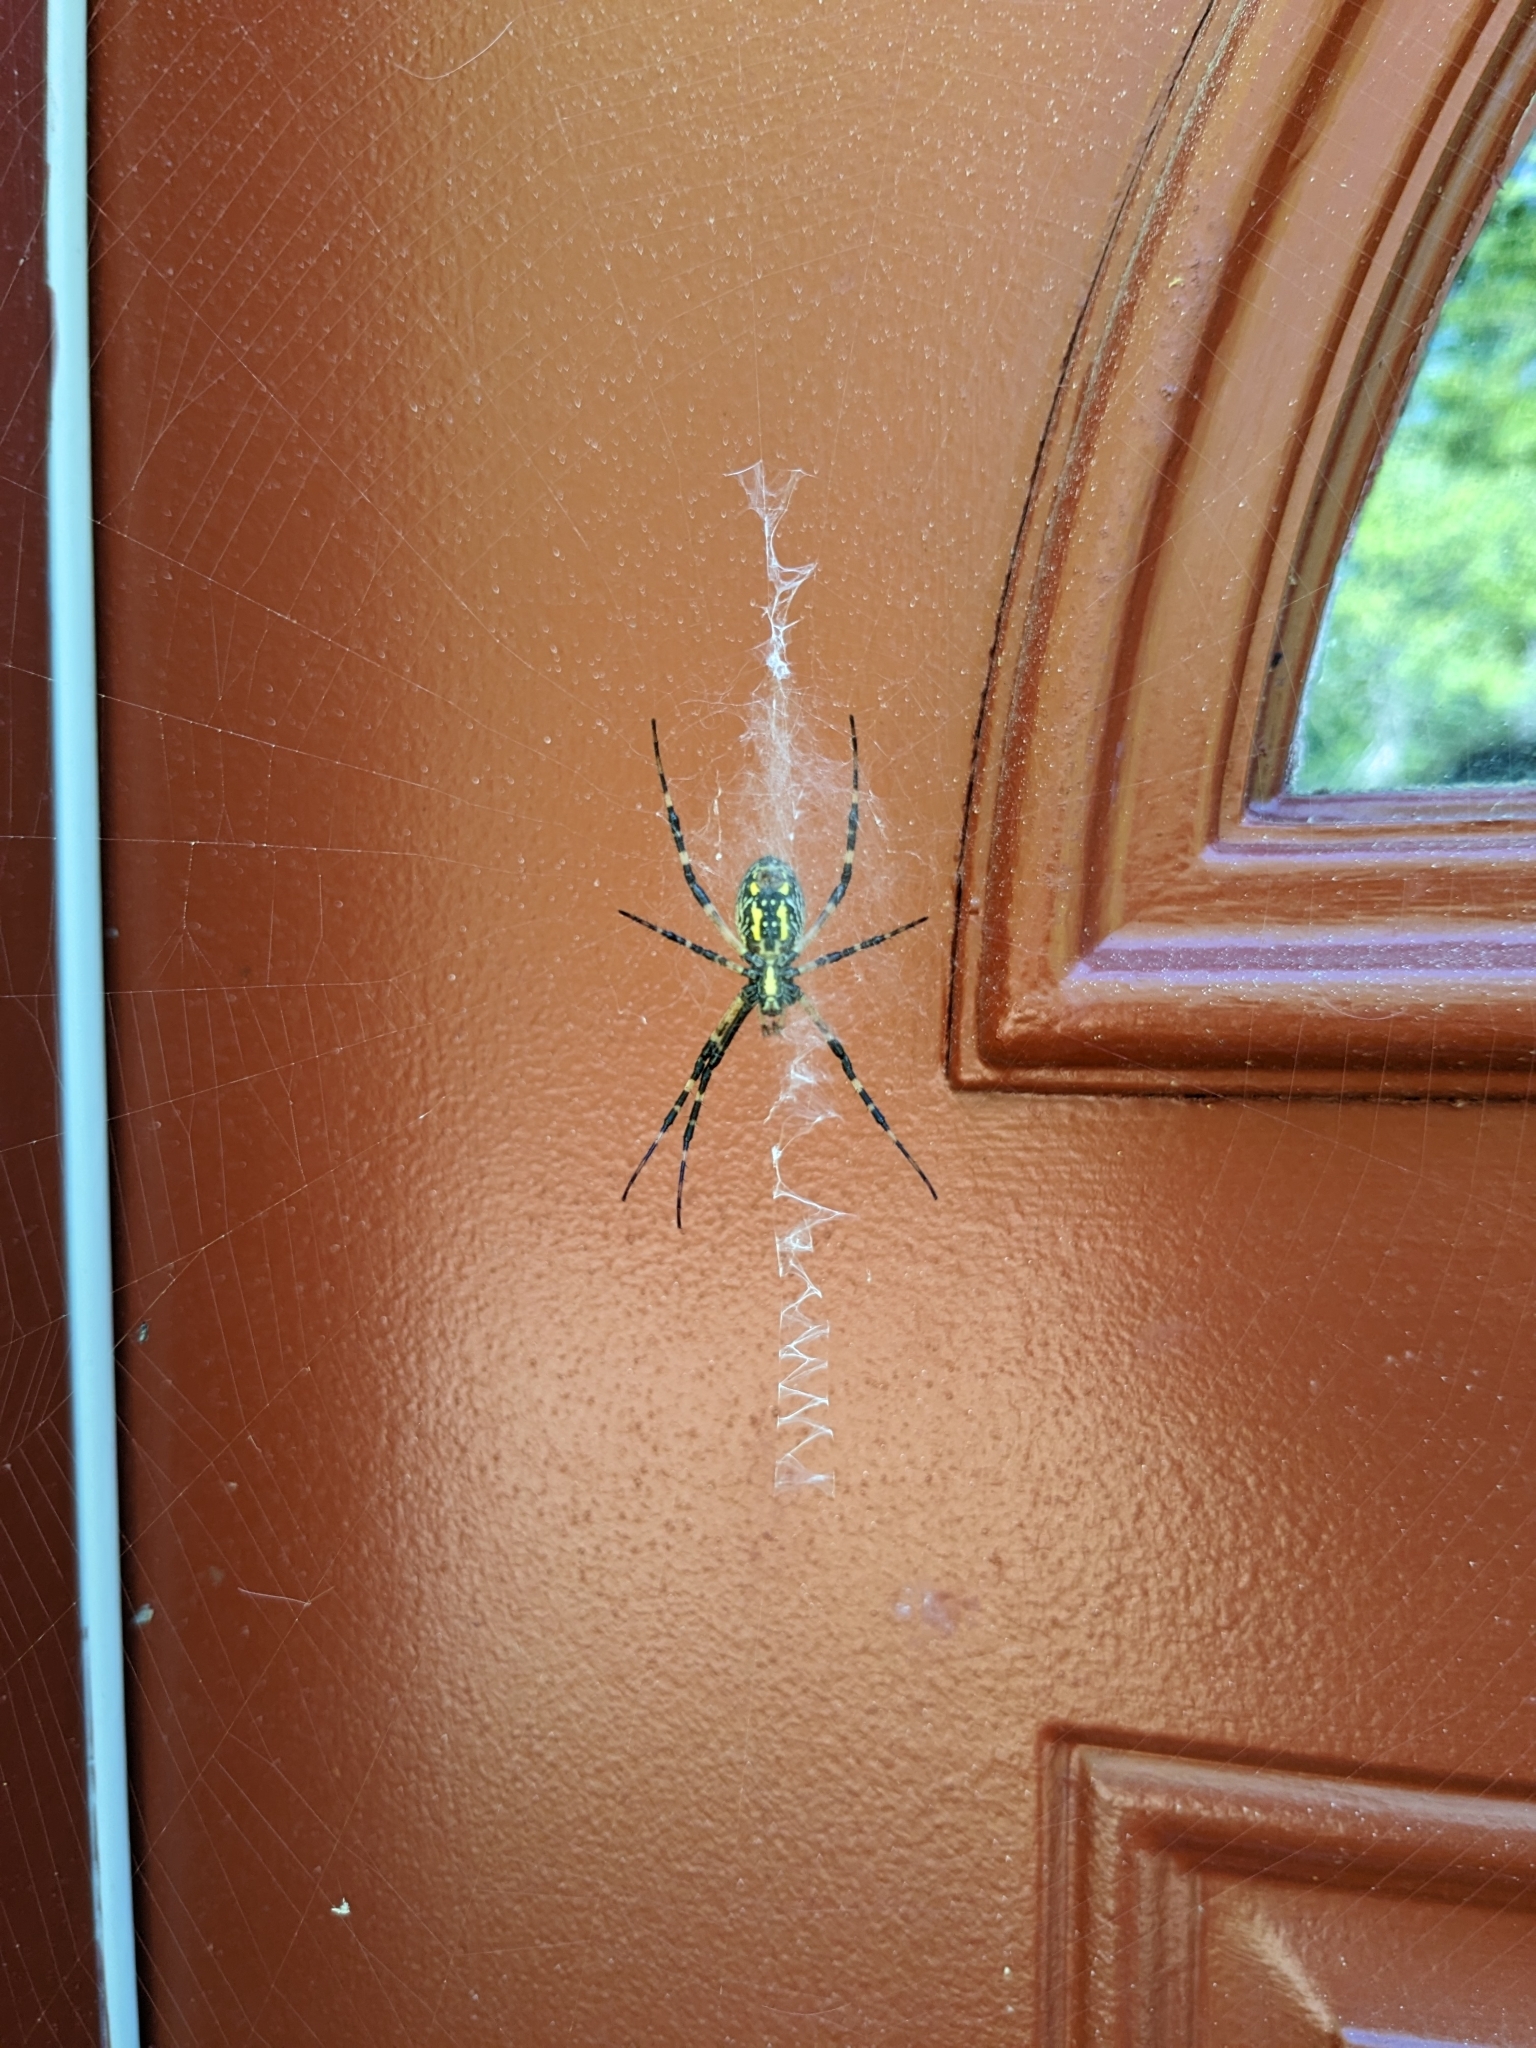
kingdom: Animalia
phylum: Arthropoda
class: Arachnida
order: Araneae
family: Araneidae
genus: Argiope
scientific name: Argiope aurantia
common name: Orb weavers
